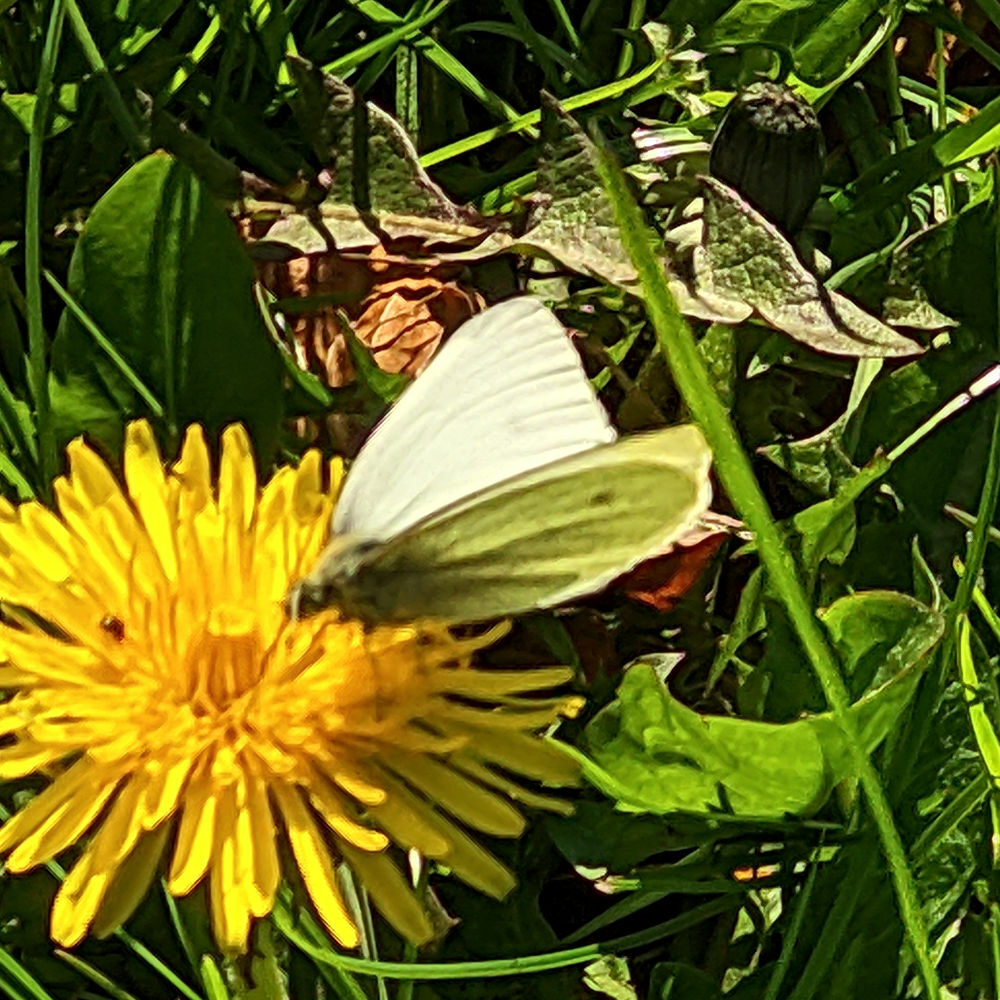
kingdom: Animalia
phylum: Arthropoda
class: Insecta
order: Lepidoptera
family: Pieridae
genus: Pieris
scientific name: Pieris rapae
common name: Small white
